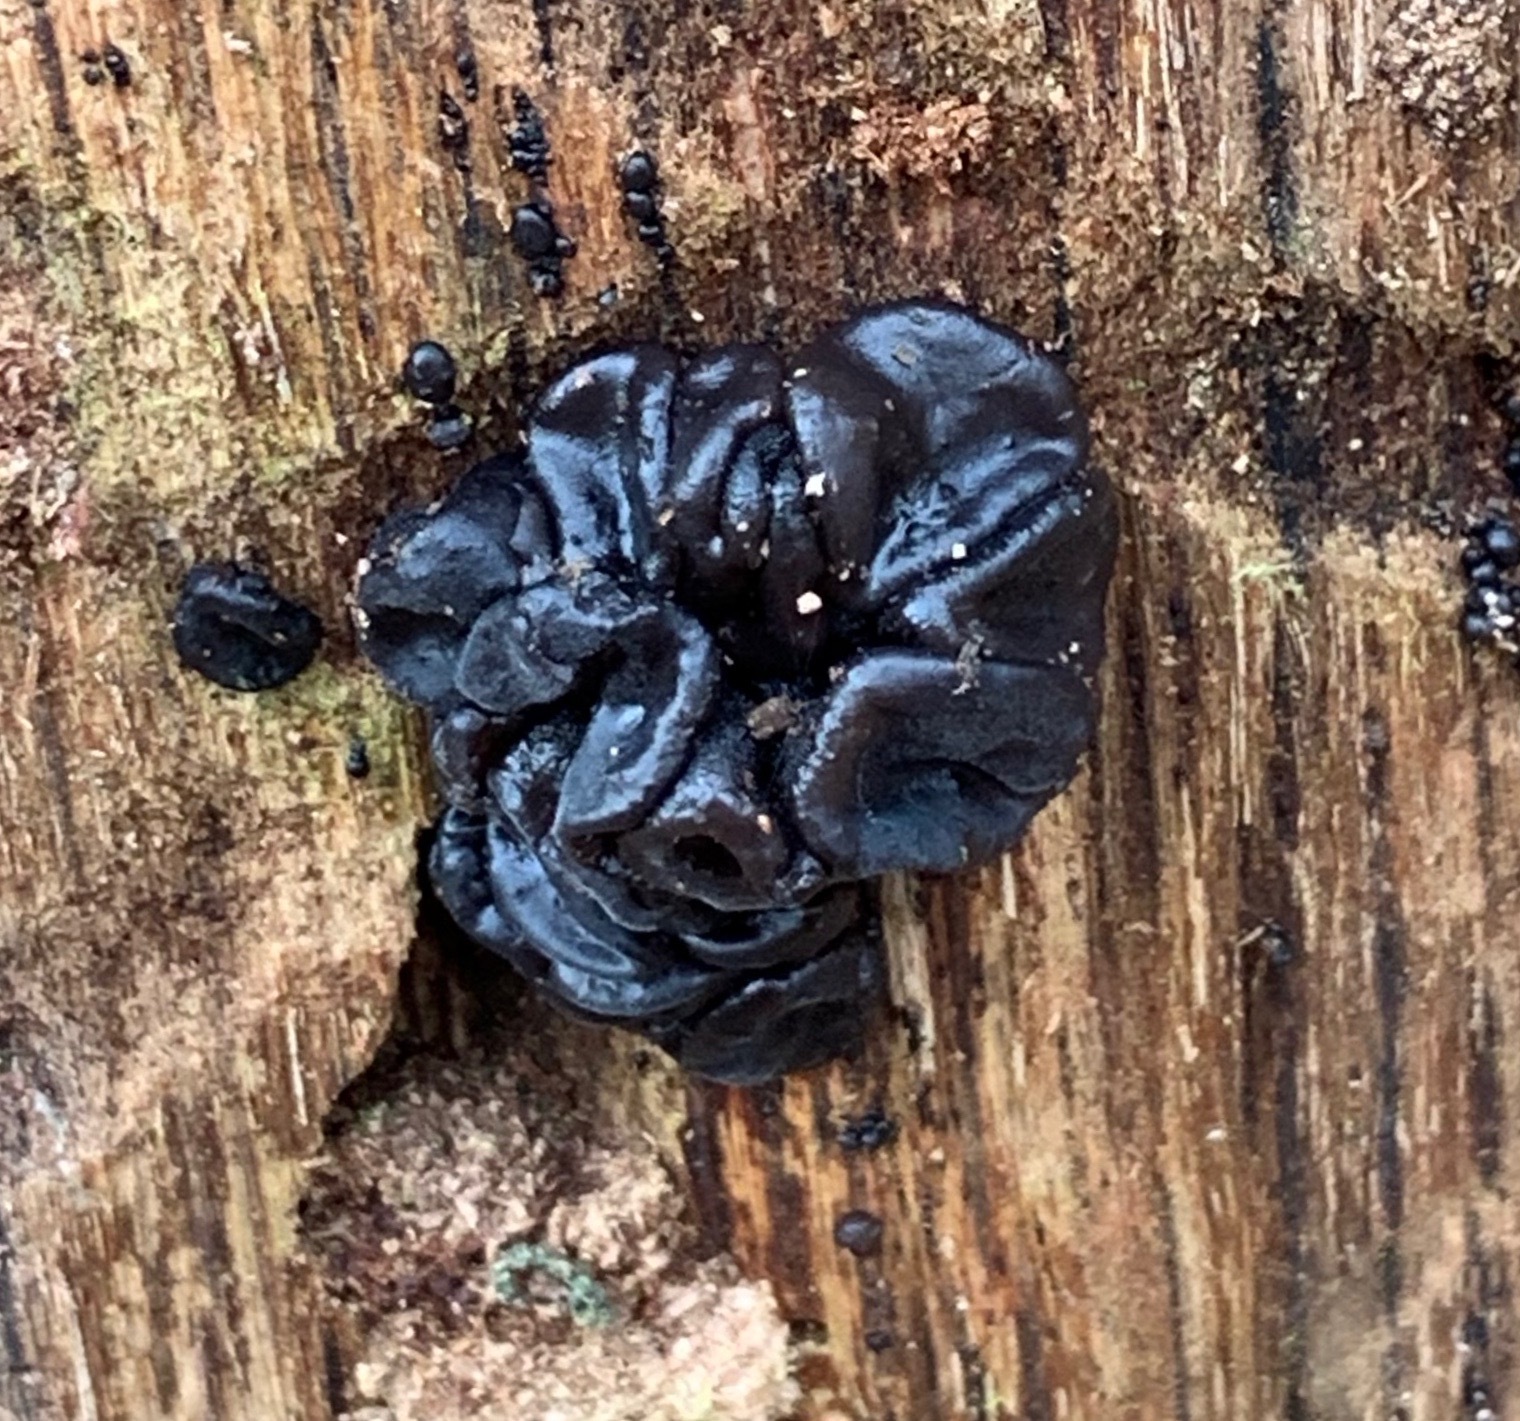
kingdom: Fungi
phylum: Basidiomycota
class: Agaricomycetes
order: Auriculariales
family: Auriculariaceae
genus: Exidia
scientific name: Exidia glandulosa
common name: Witches' butter
